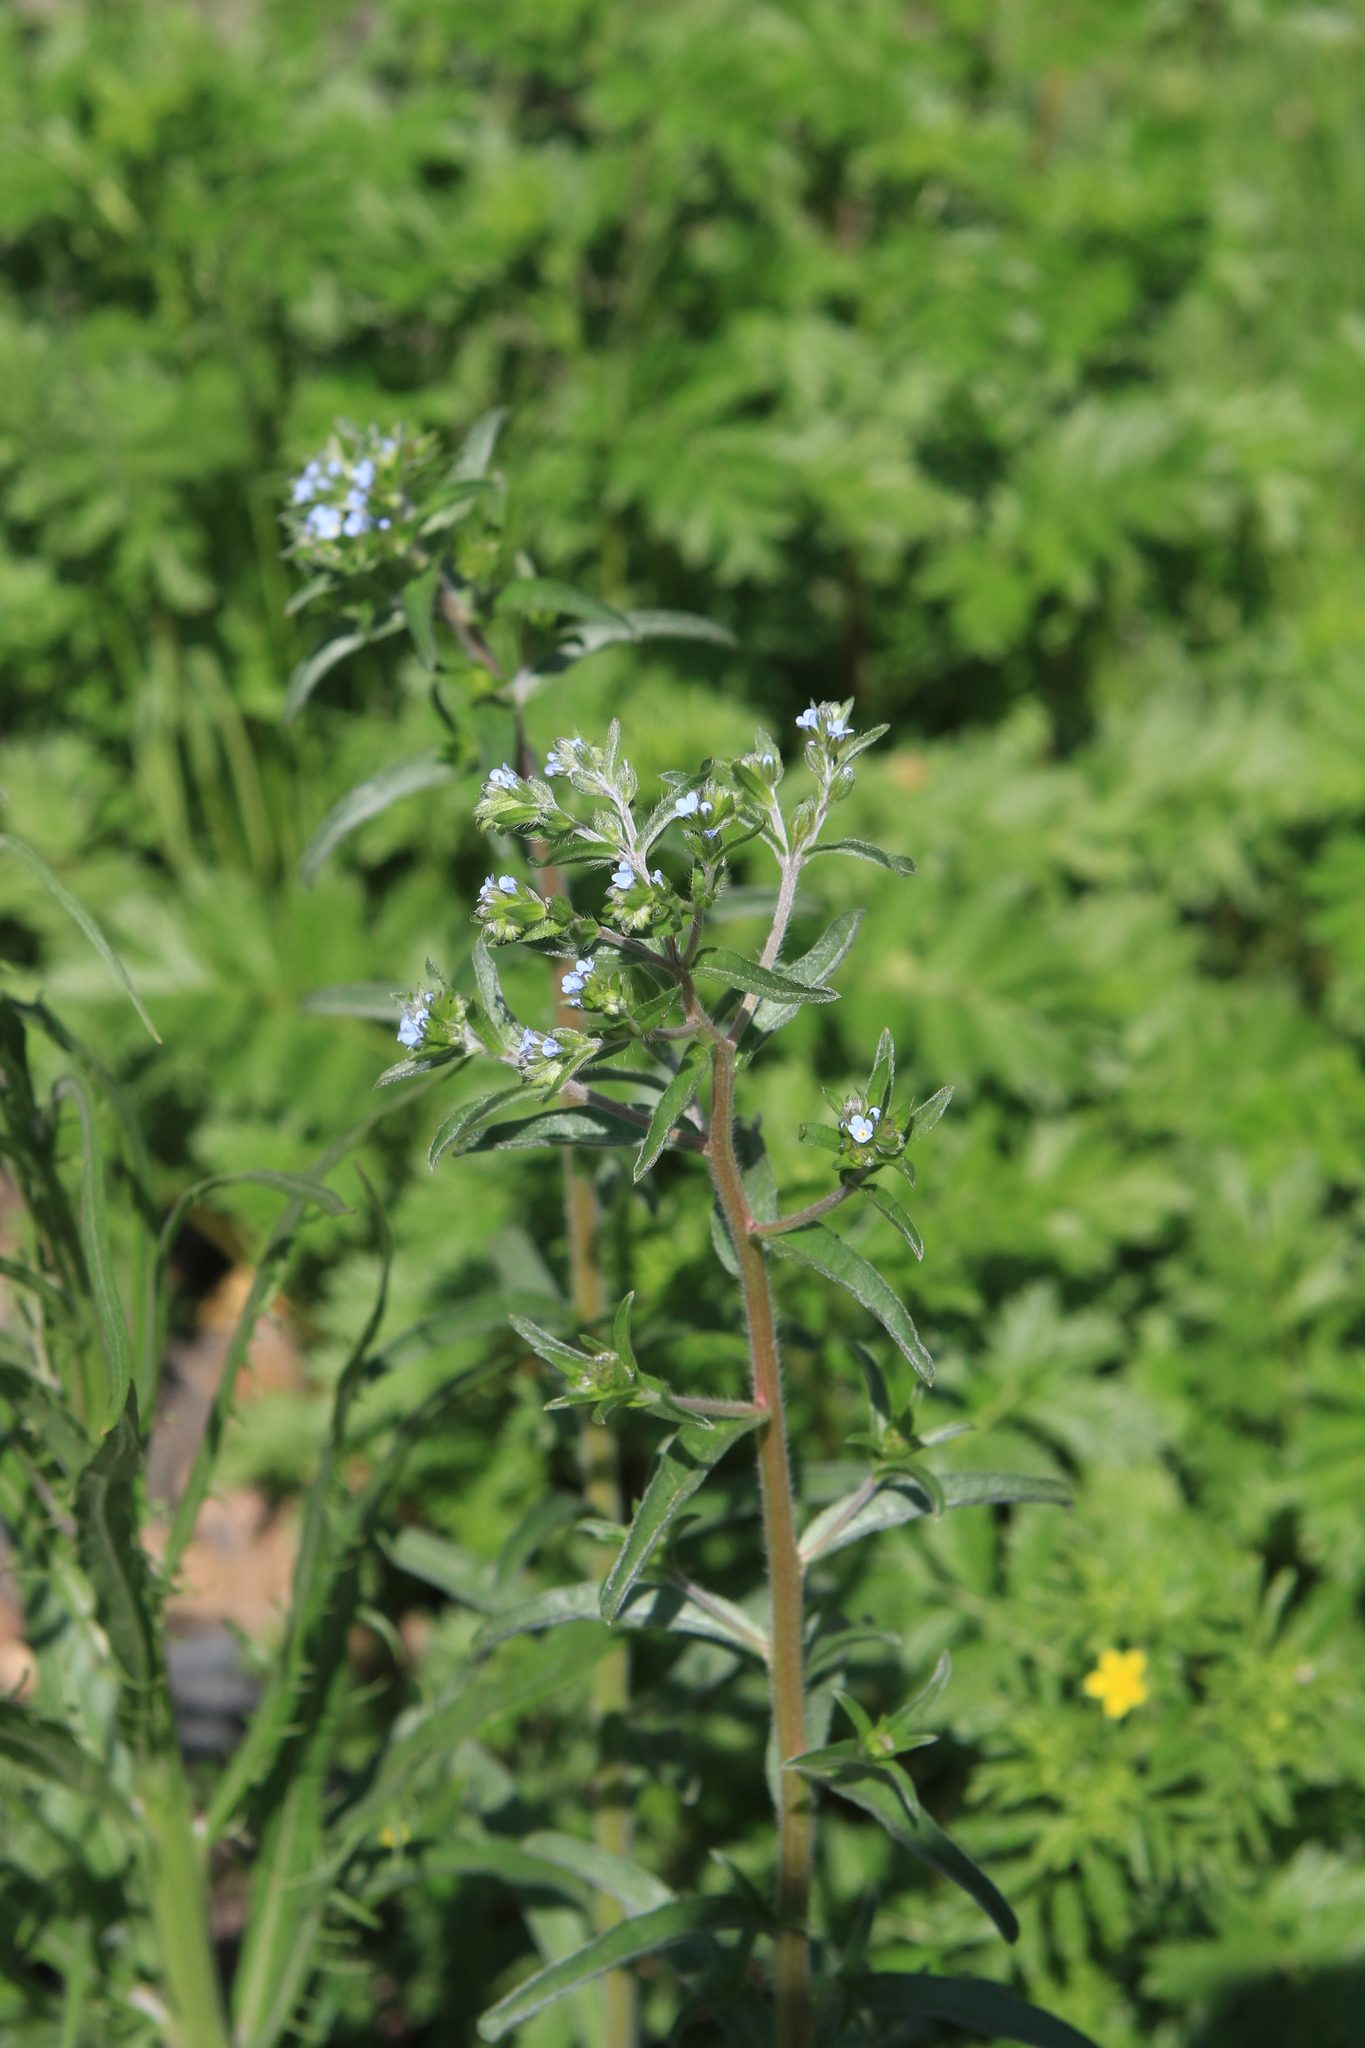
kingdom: Plantae
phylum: Tracheophyta
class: Magnoliopsida
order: Boraginales
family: Boraginaceae
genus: Lappula
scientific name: Lappula squarrosa
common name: European stickseed
